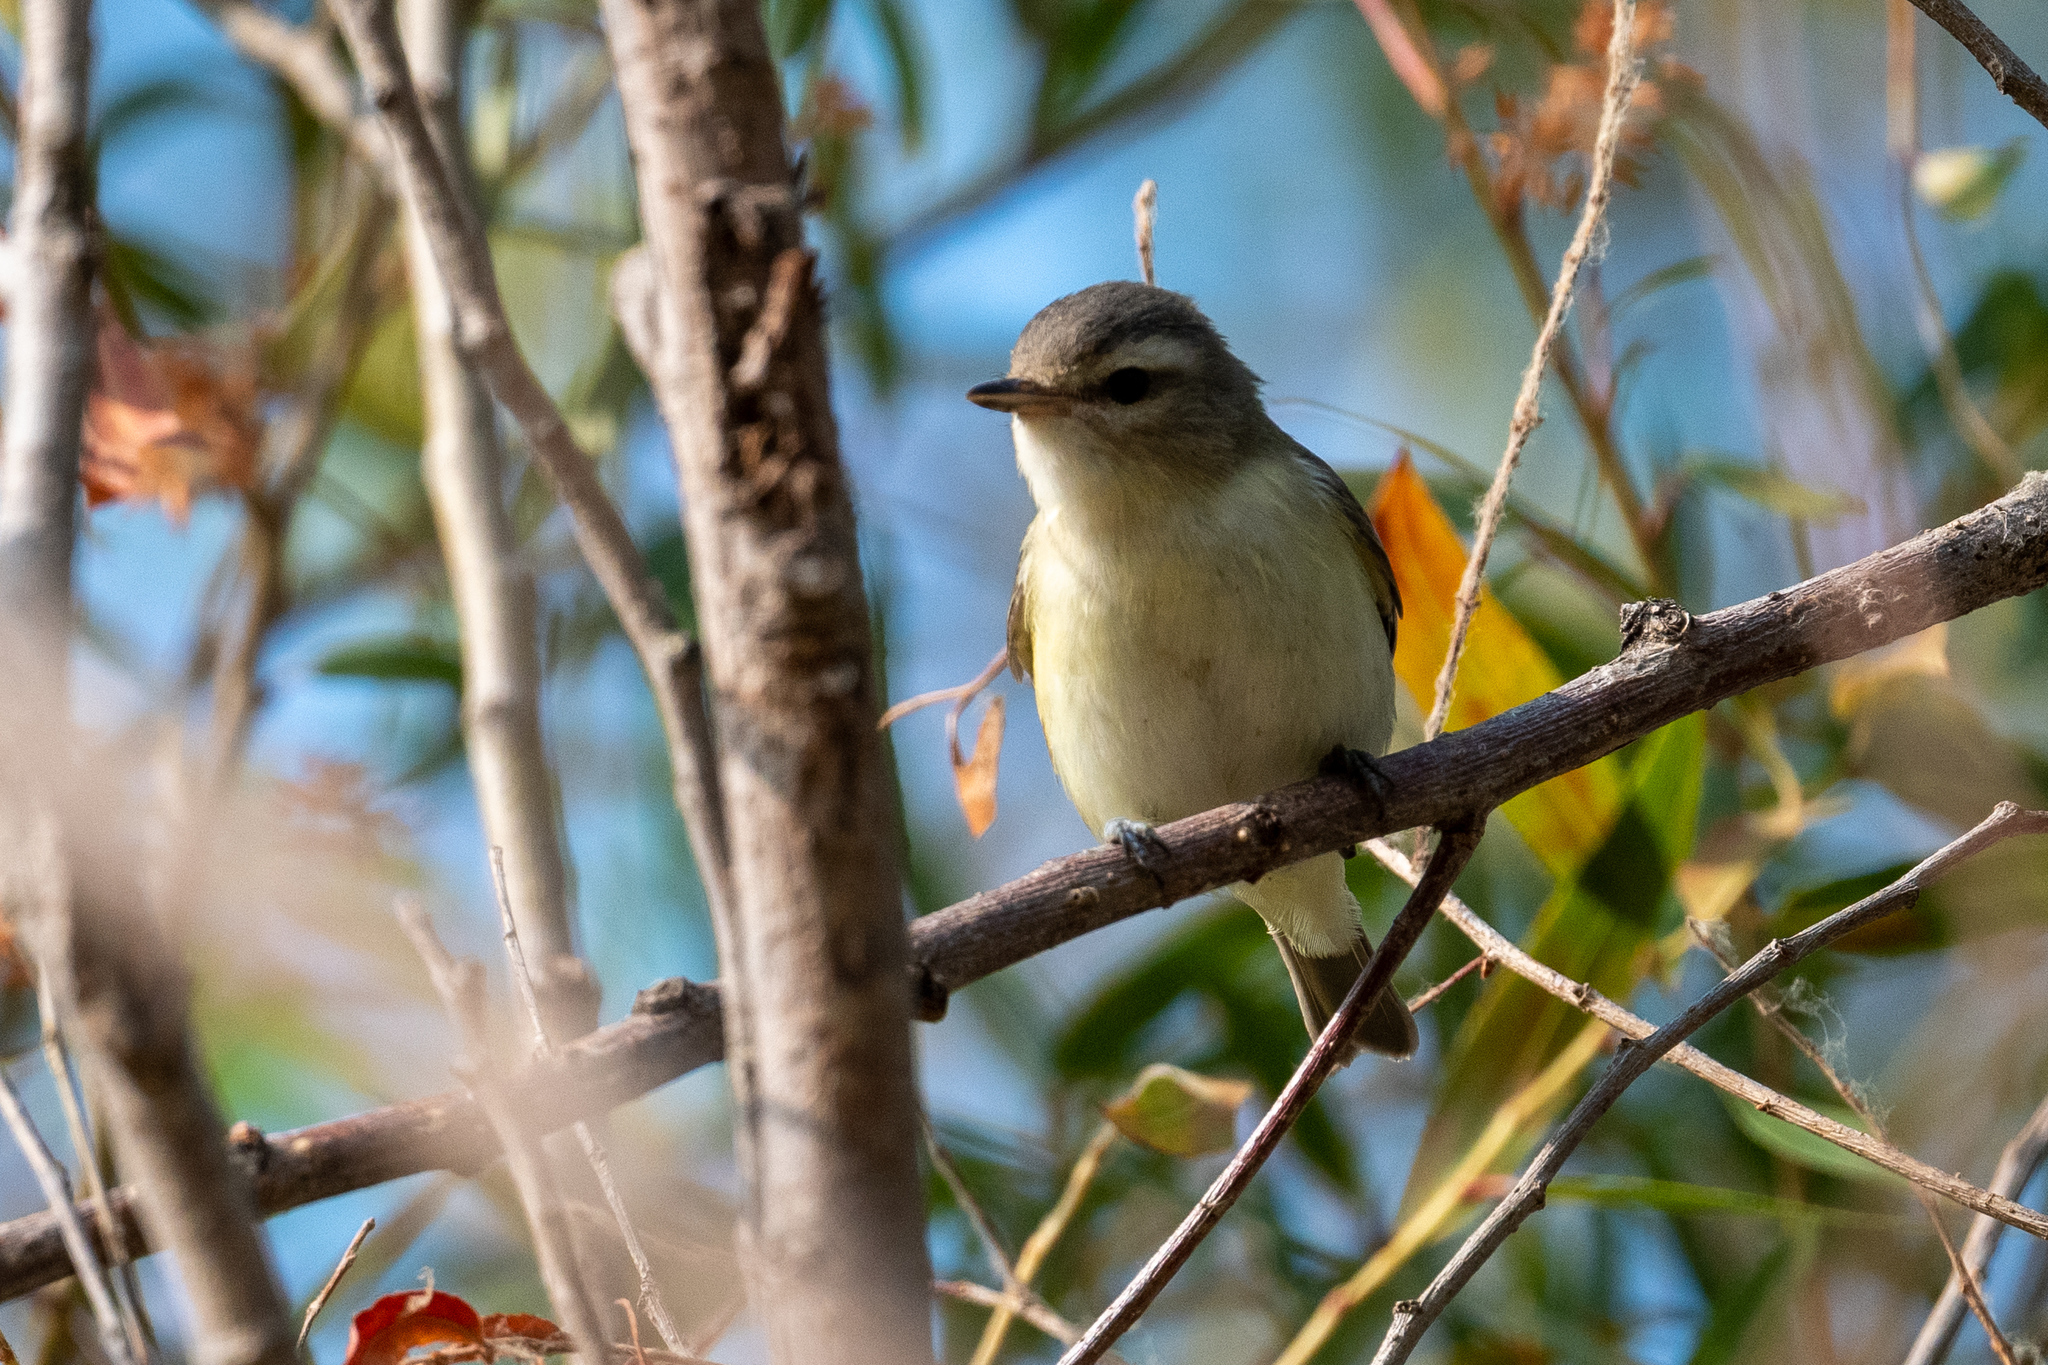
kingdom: Animalia
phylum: Chordata
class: Aves
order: Passeriformes
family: Vireonidae
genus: Vireo
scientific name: Vireo gilvus
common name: Warbling vireo
